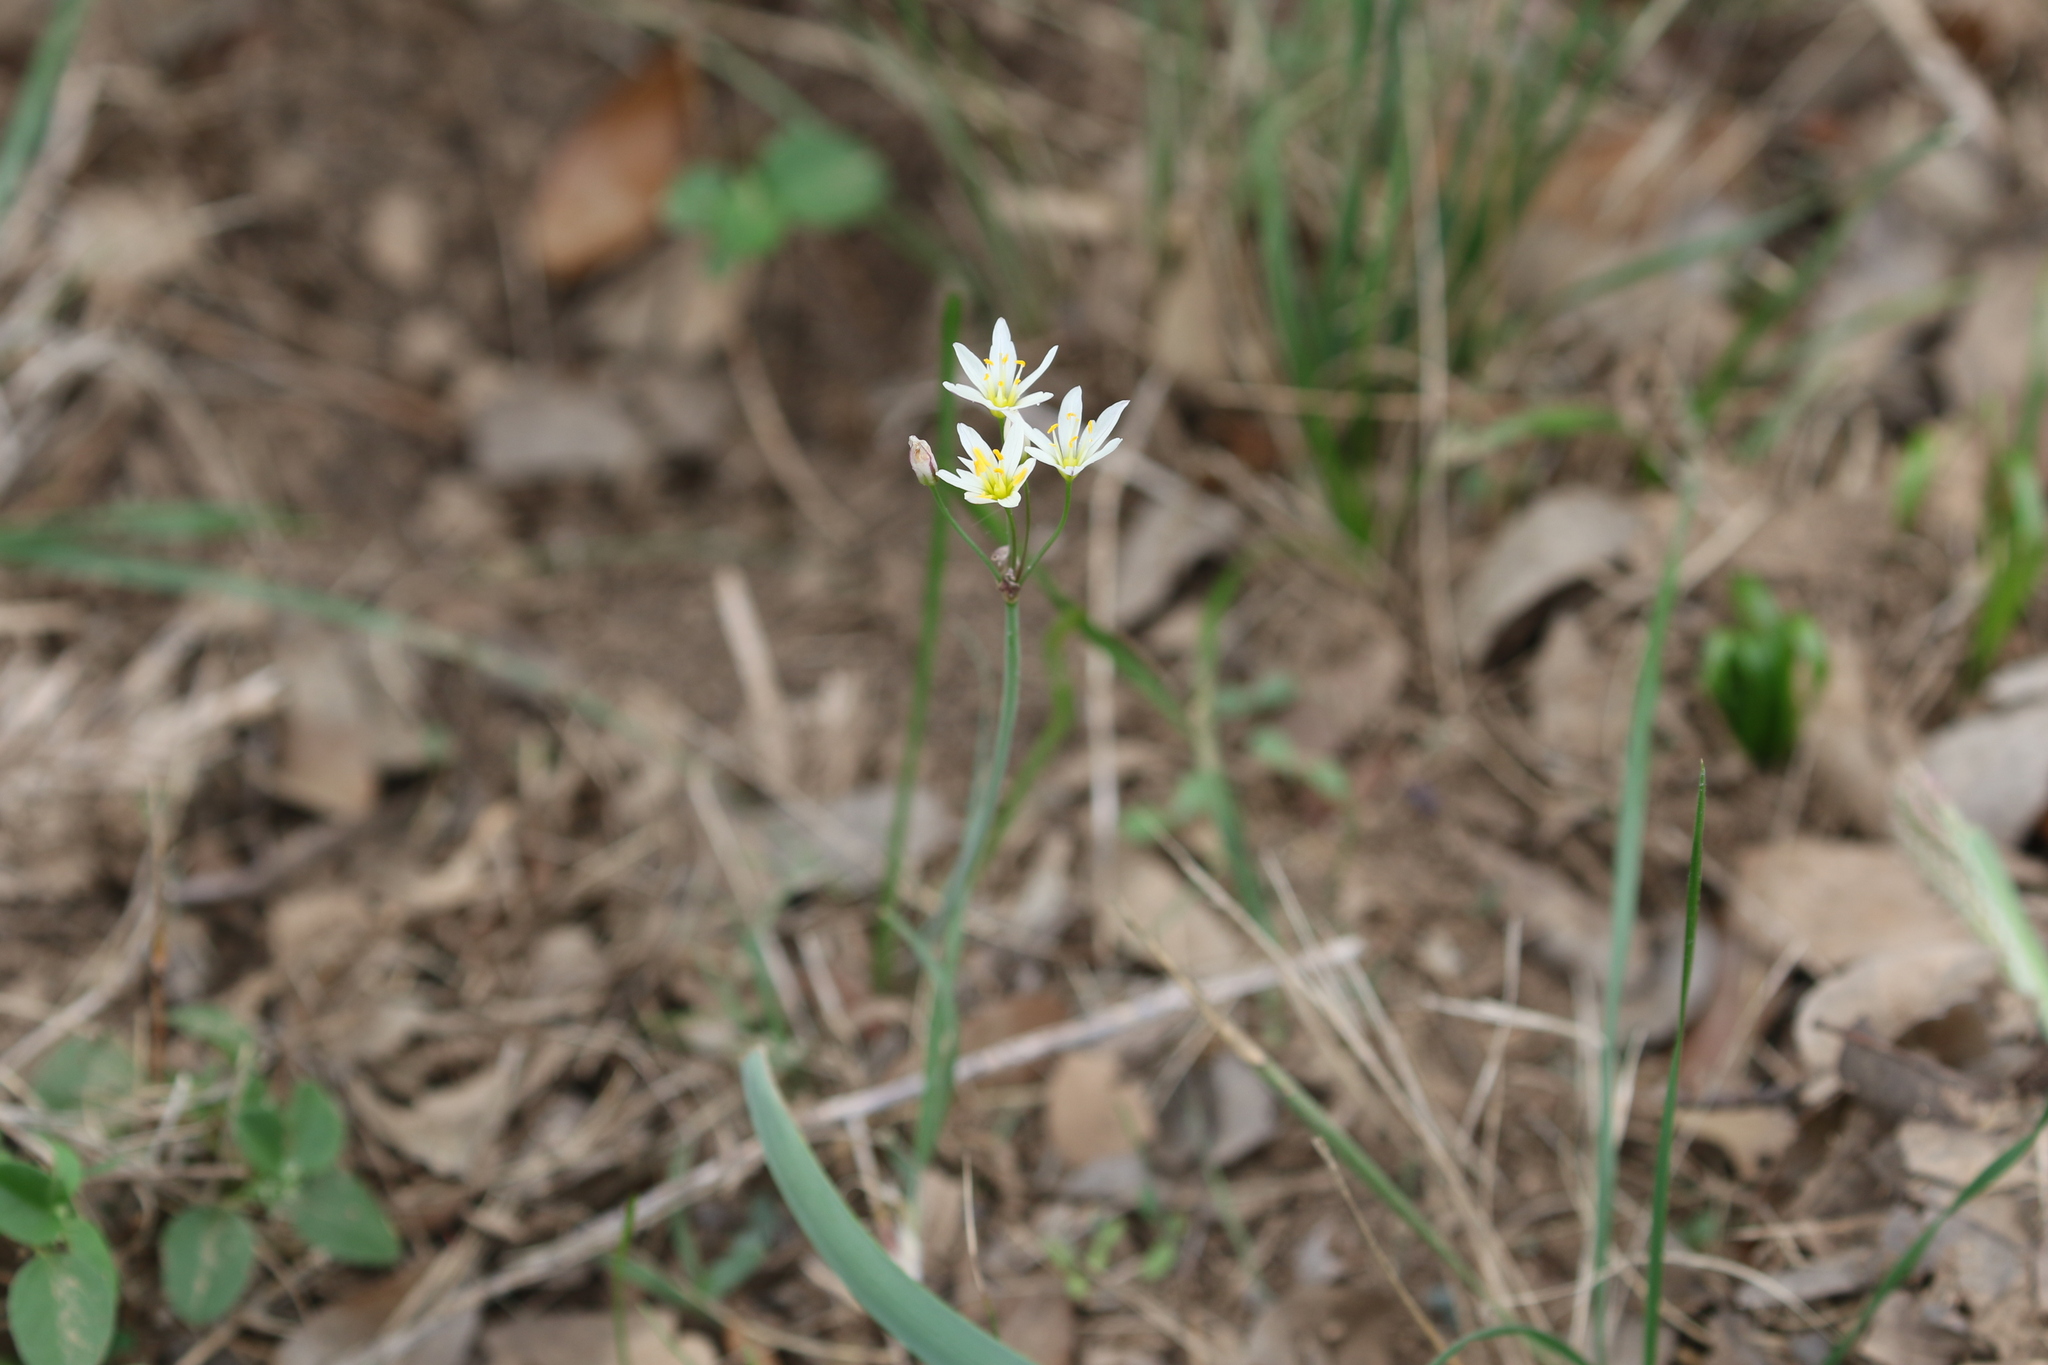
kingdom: Plantae
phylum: Tracheophyta
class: Liliopsida
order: Asparagales
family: Amaryllidaceae
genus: Nothoscordum
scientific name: Nothoscordum bivalve
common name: Crow-poison
